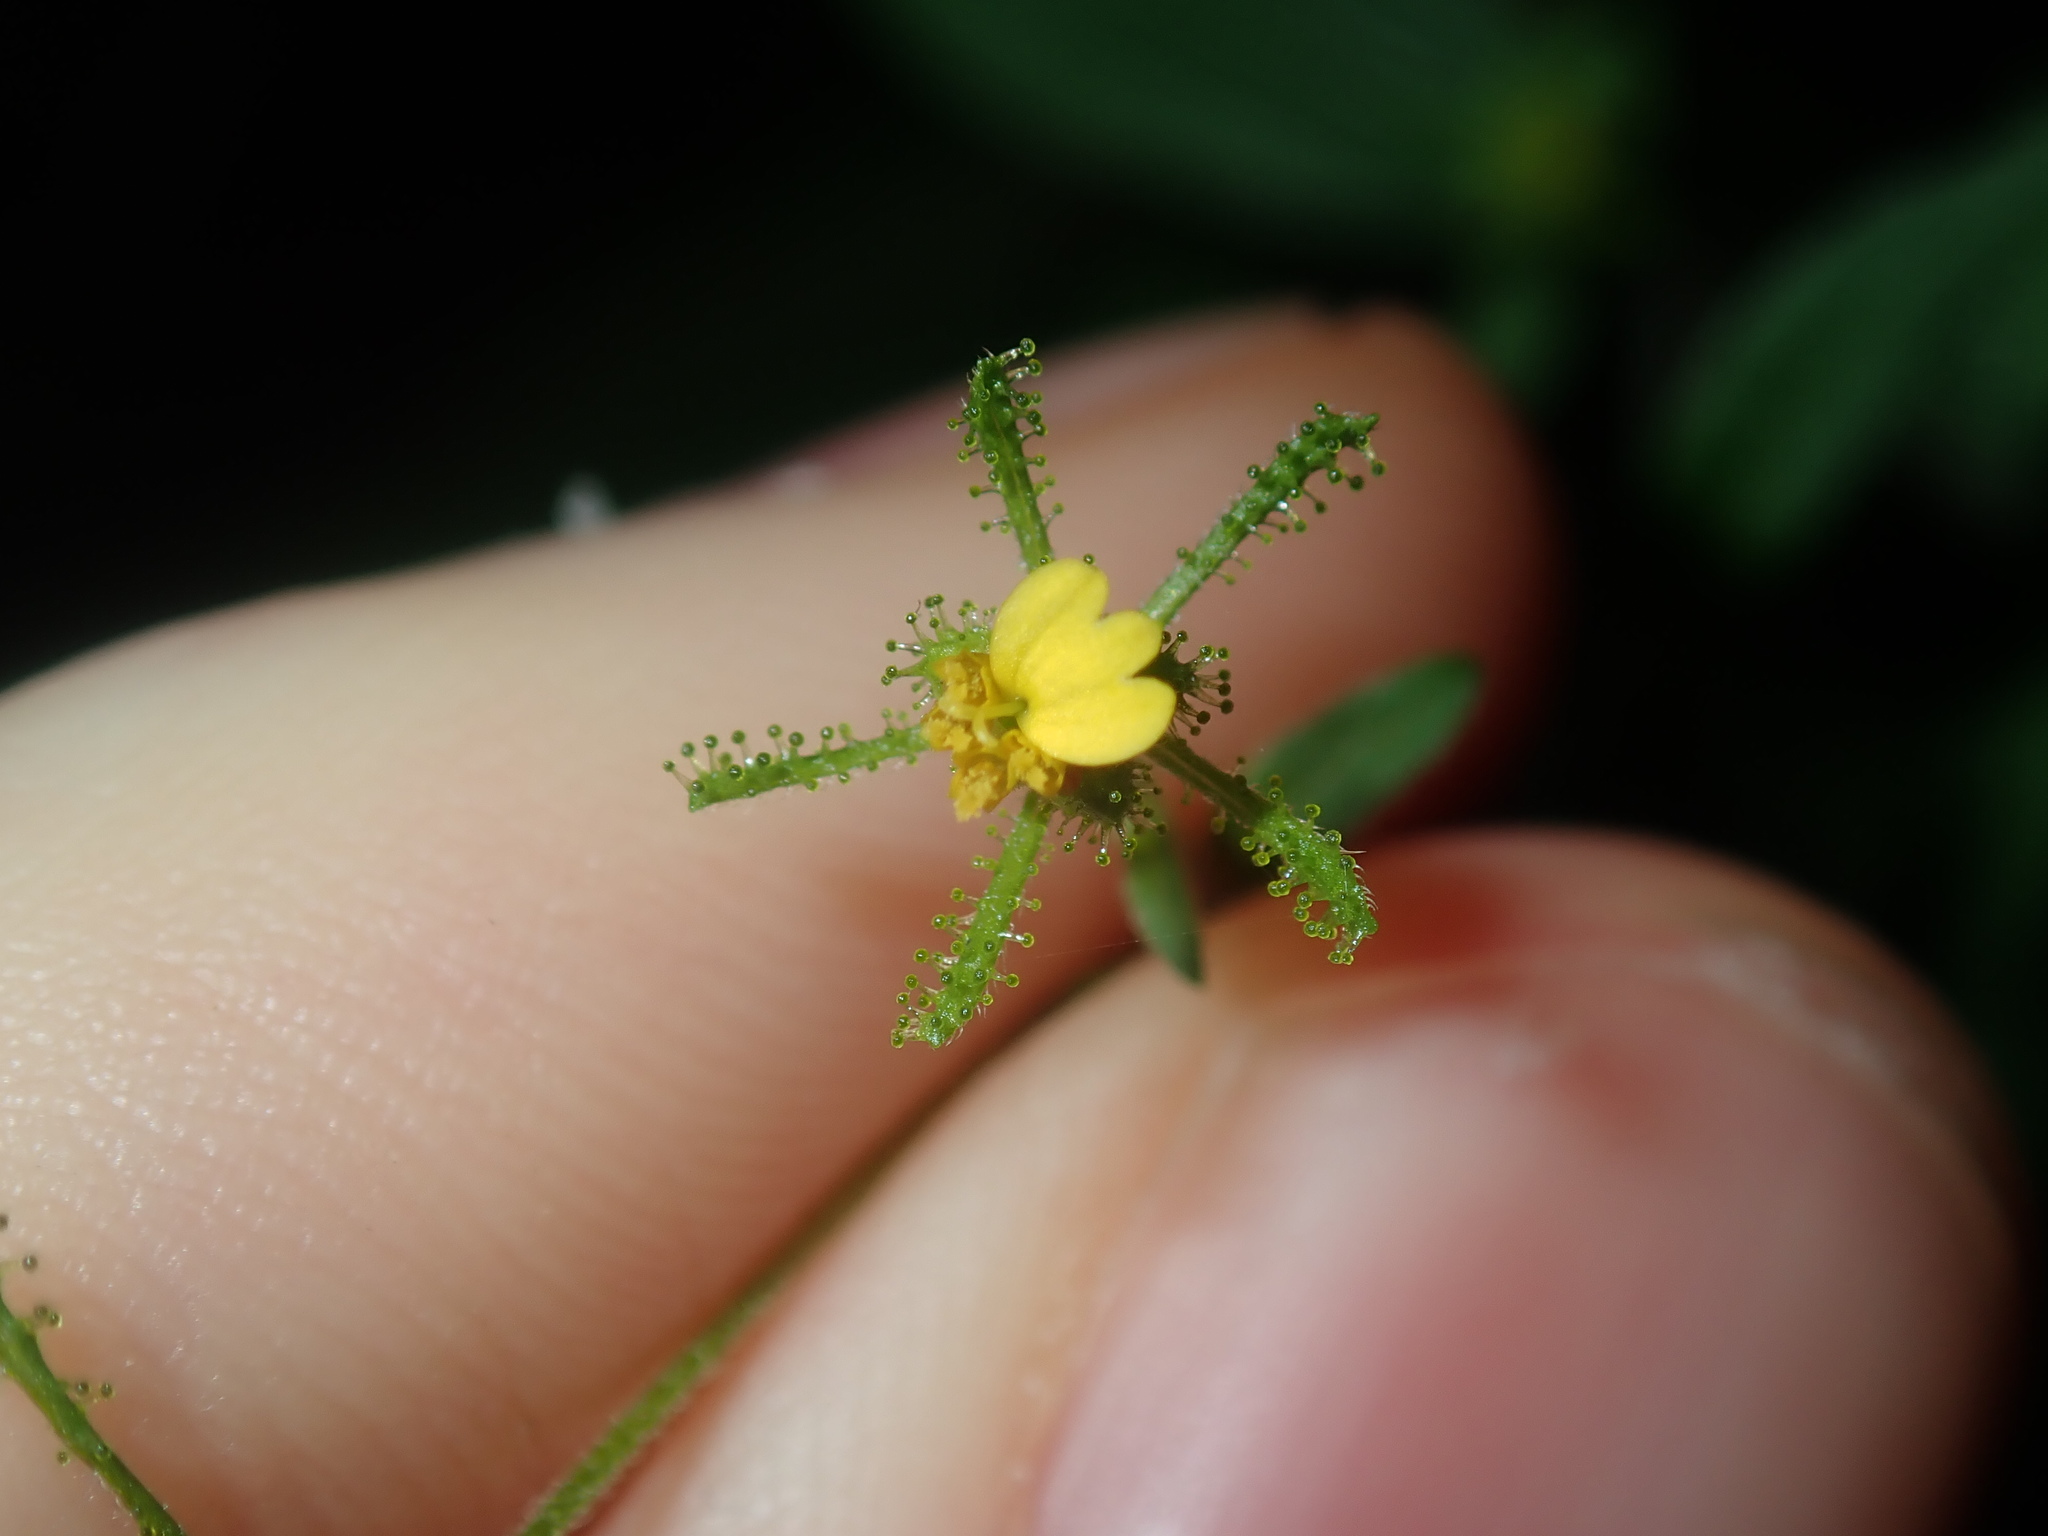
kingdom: Plantae
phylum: Tracheophyta
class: Magnoliopsida
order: Asterales
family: Asteraceae
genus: Sigesbeckia
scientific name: Sigesbeckia orientalis
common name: Eastern st paul's-wort
